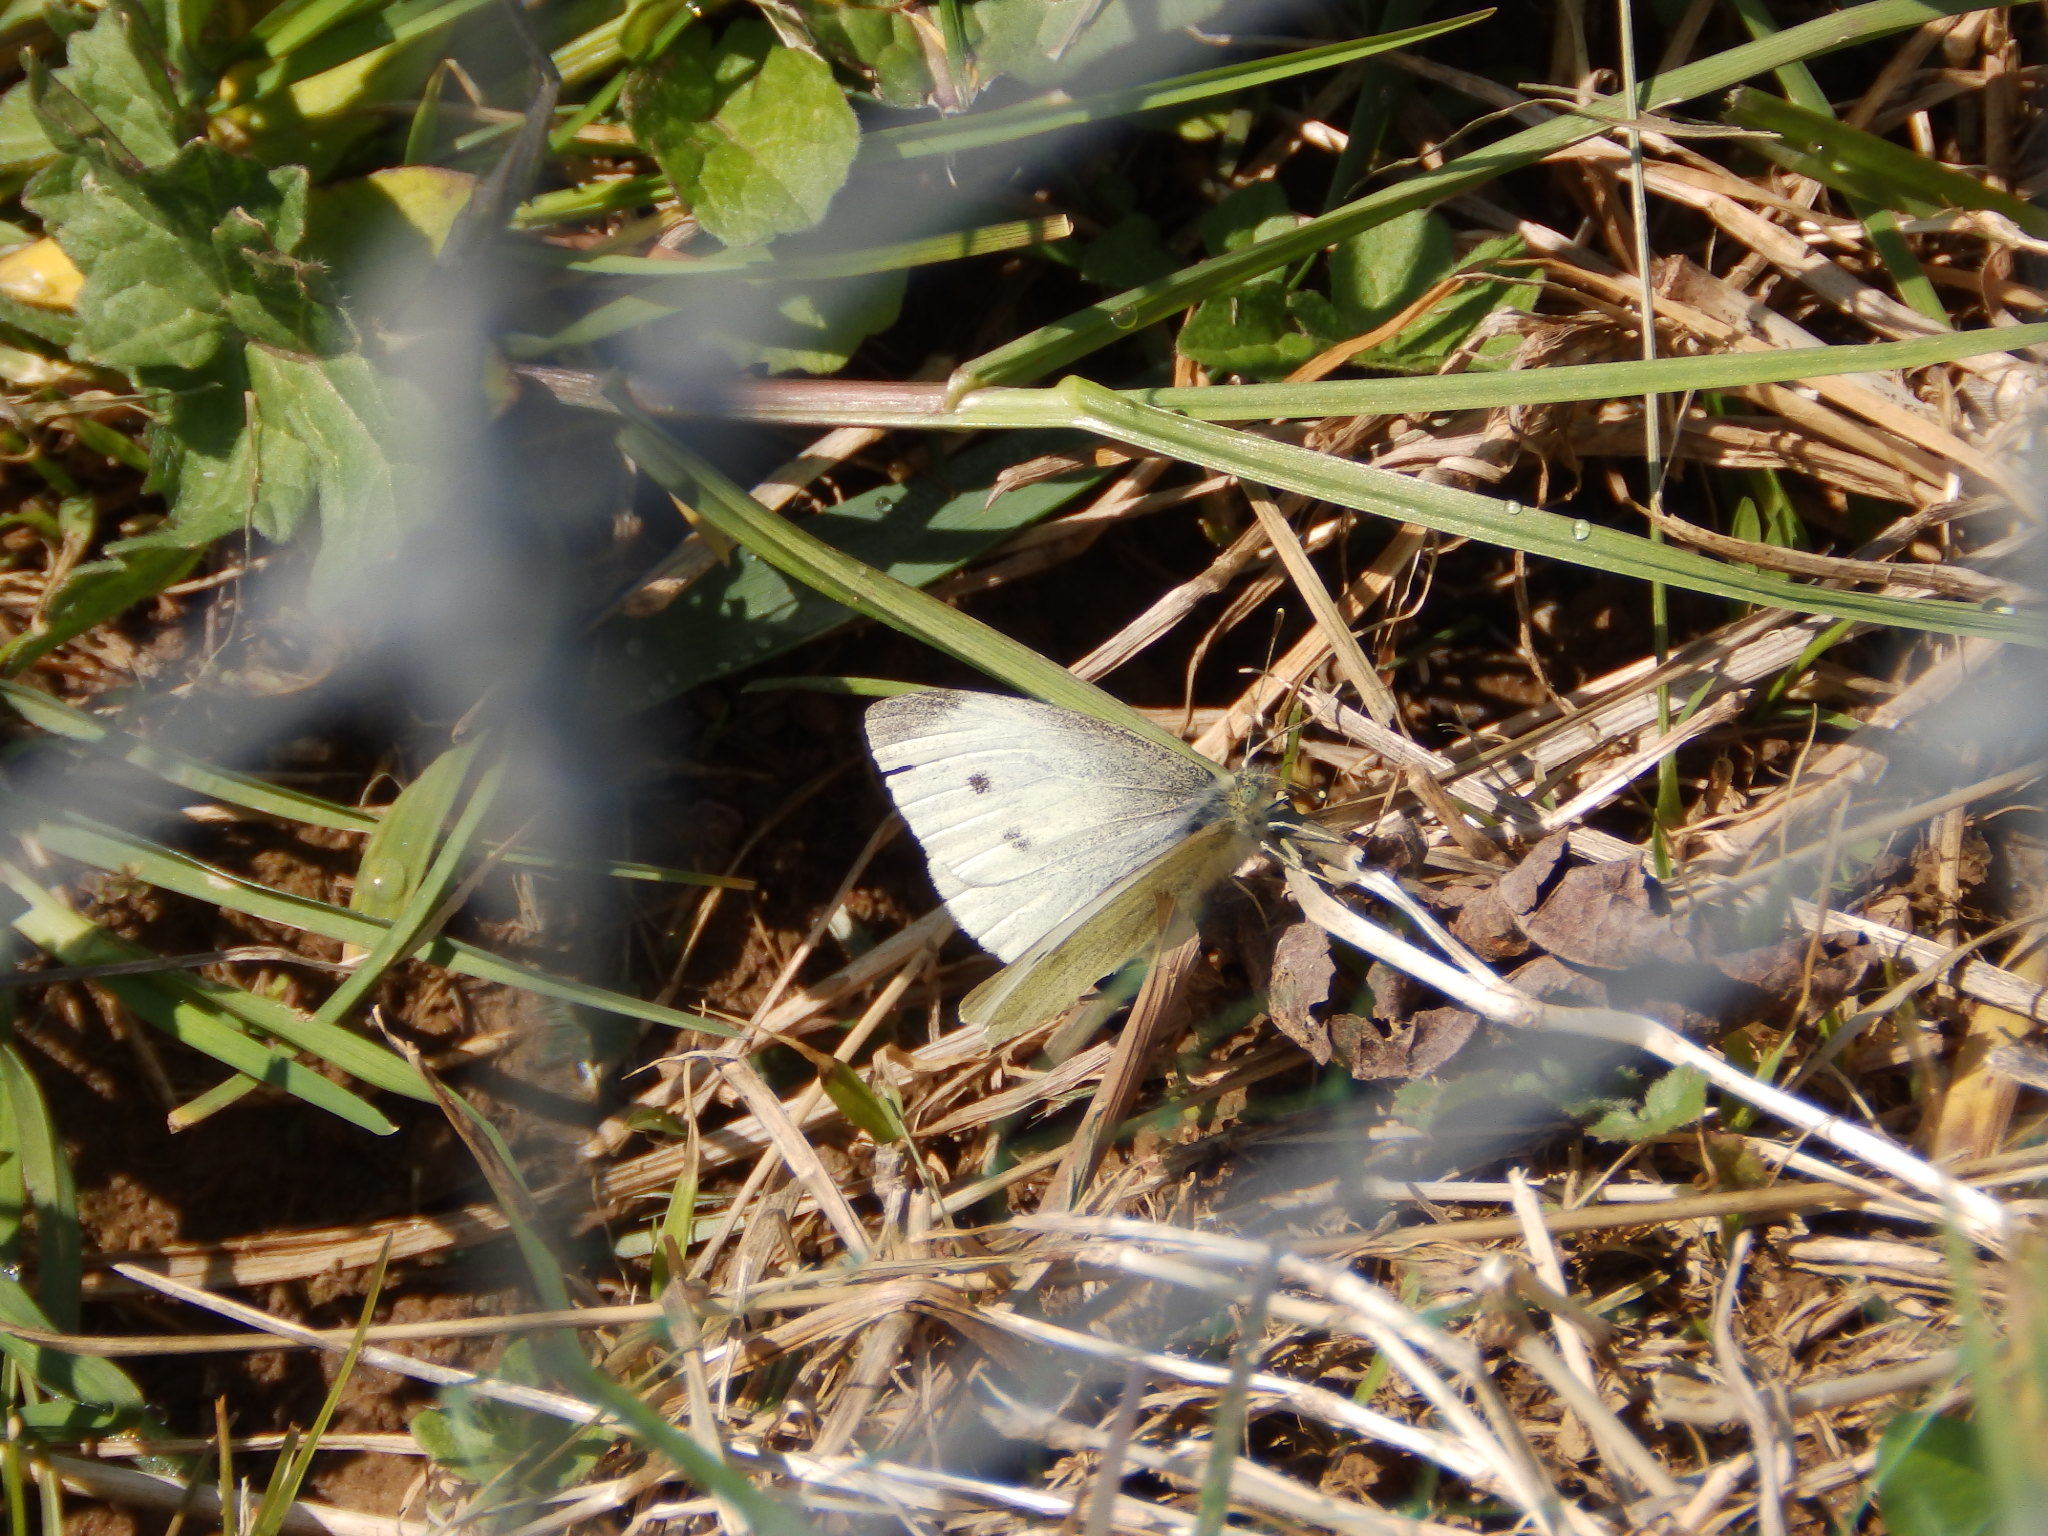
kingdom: Animalia
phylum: Arthropoda
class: Insecta
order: Lepidoptera
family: Pieridae
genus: Pieris
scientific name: Pieris rapae
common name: Small white
